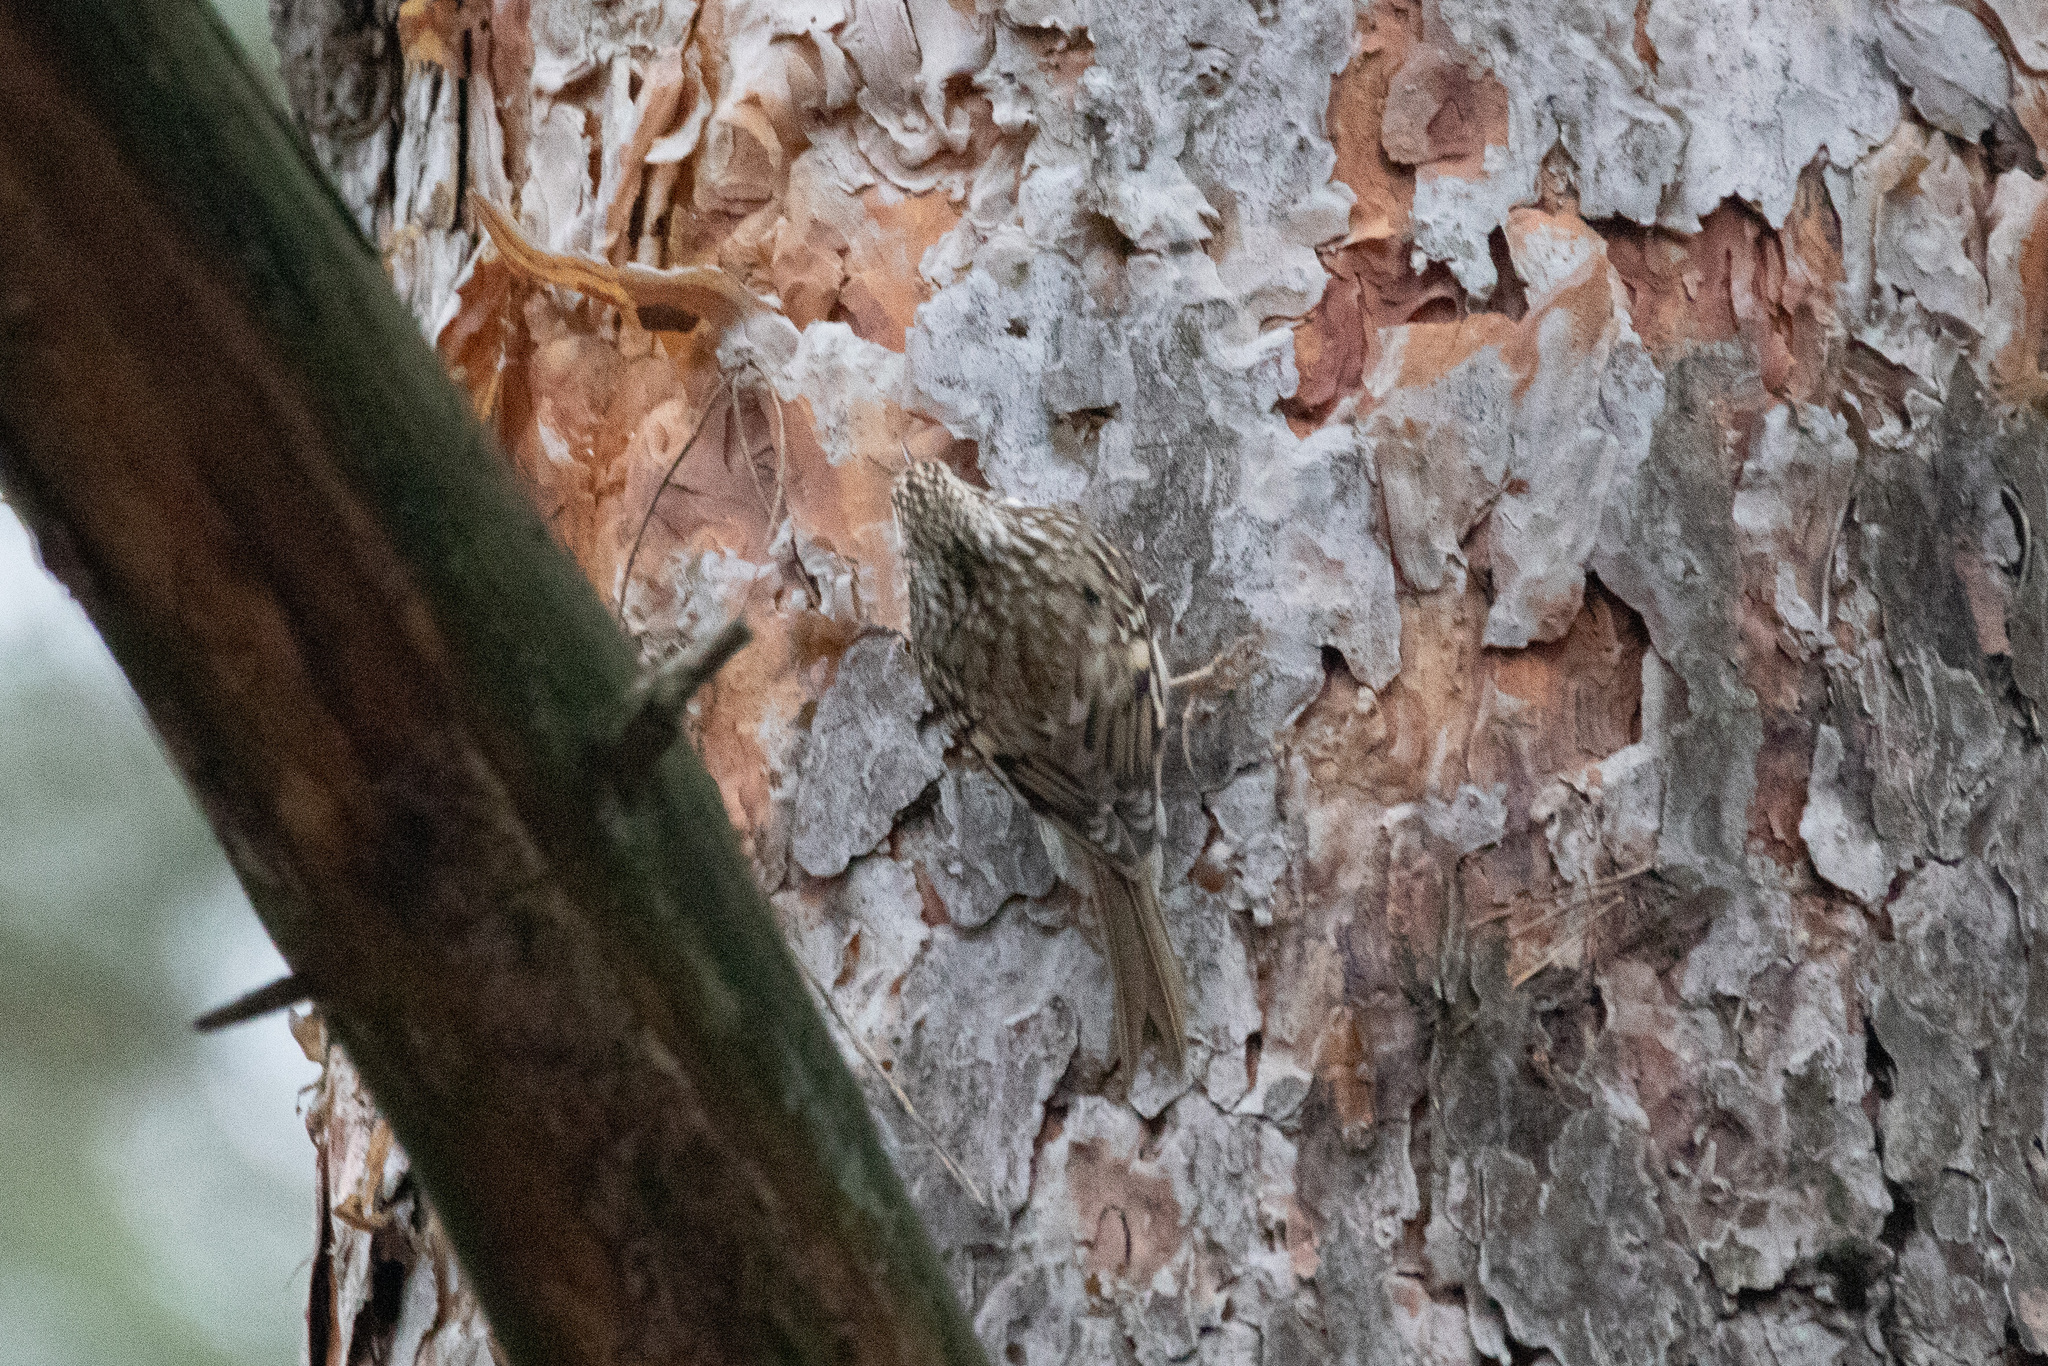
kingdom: Animalia
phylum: Chordata
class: Aves
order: Passeriformes
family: Certhiidae
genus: Certhia
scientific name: Certhia familiaris
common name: Eurasian treecreeper
